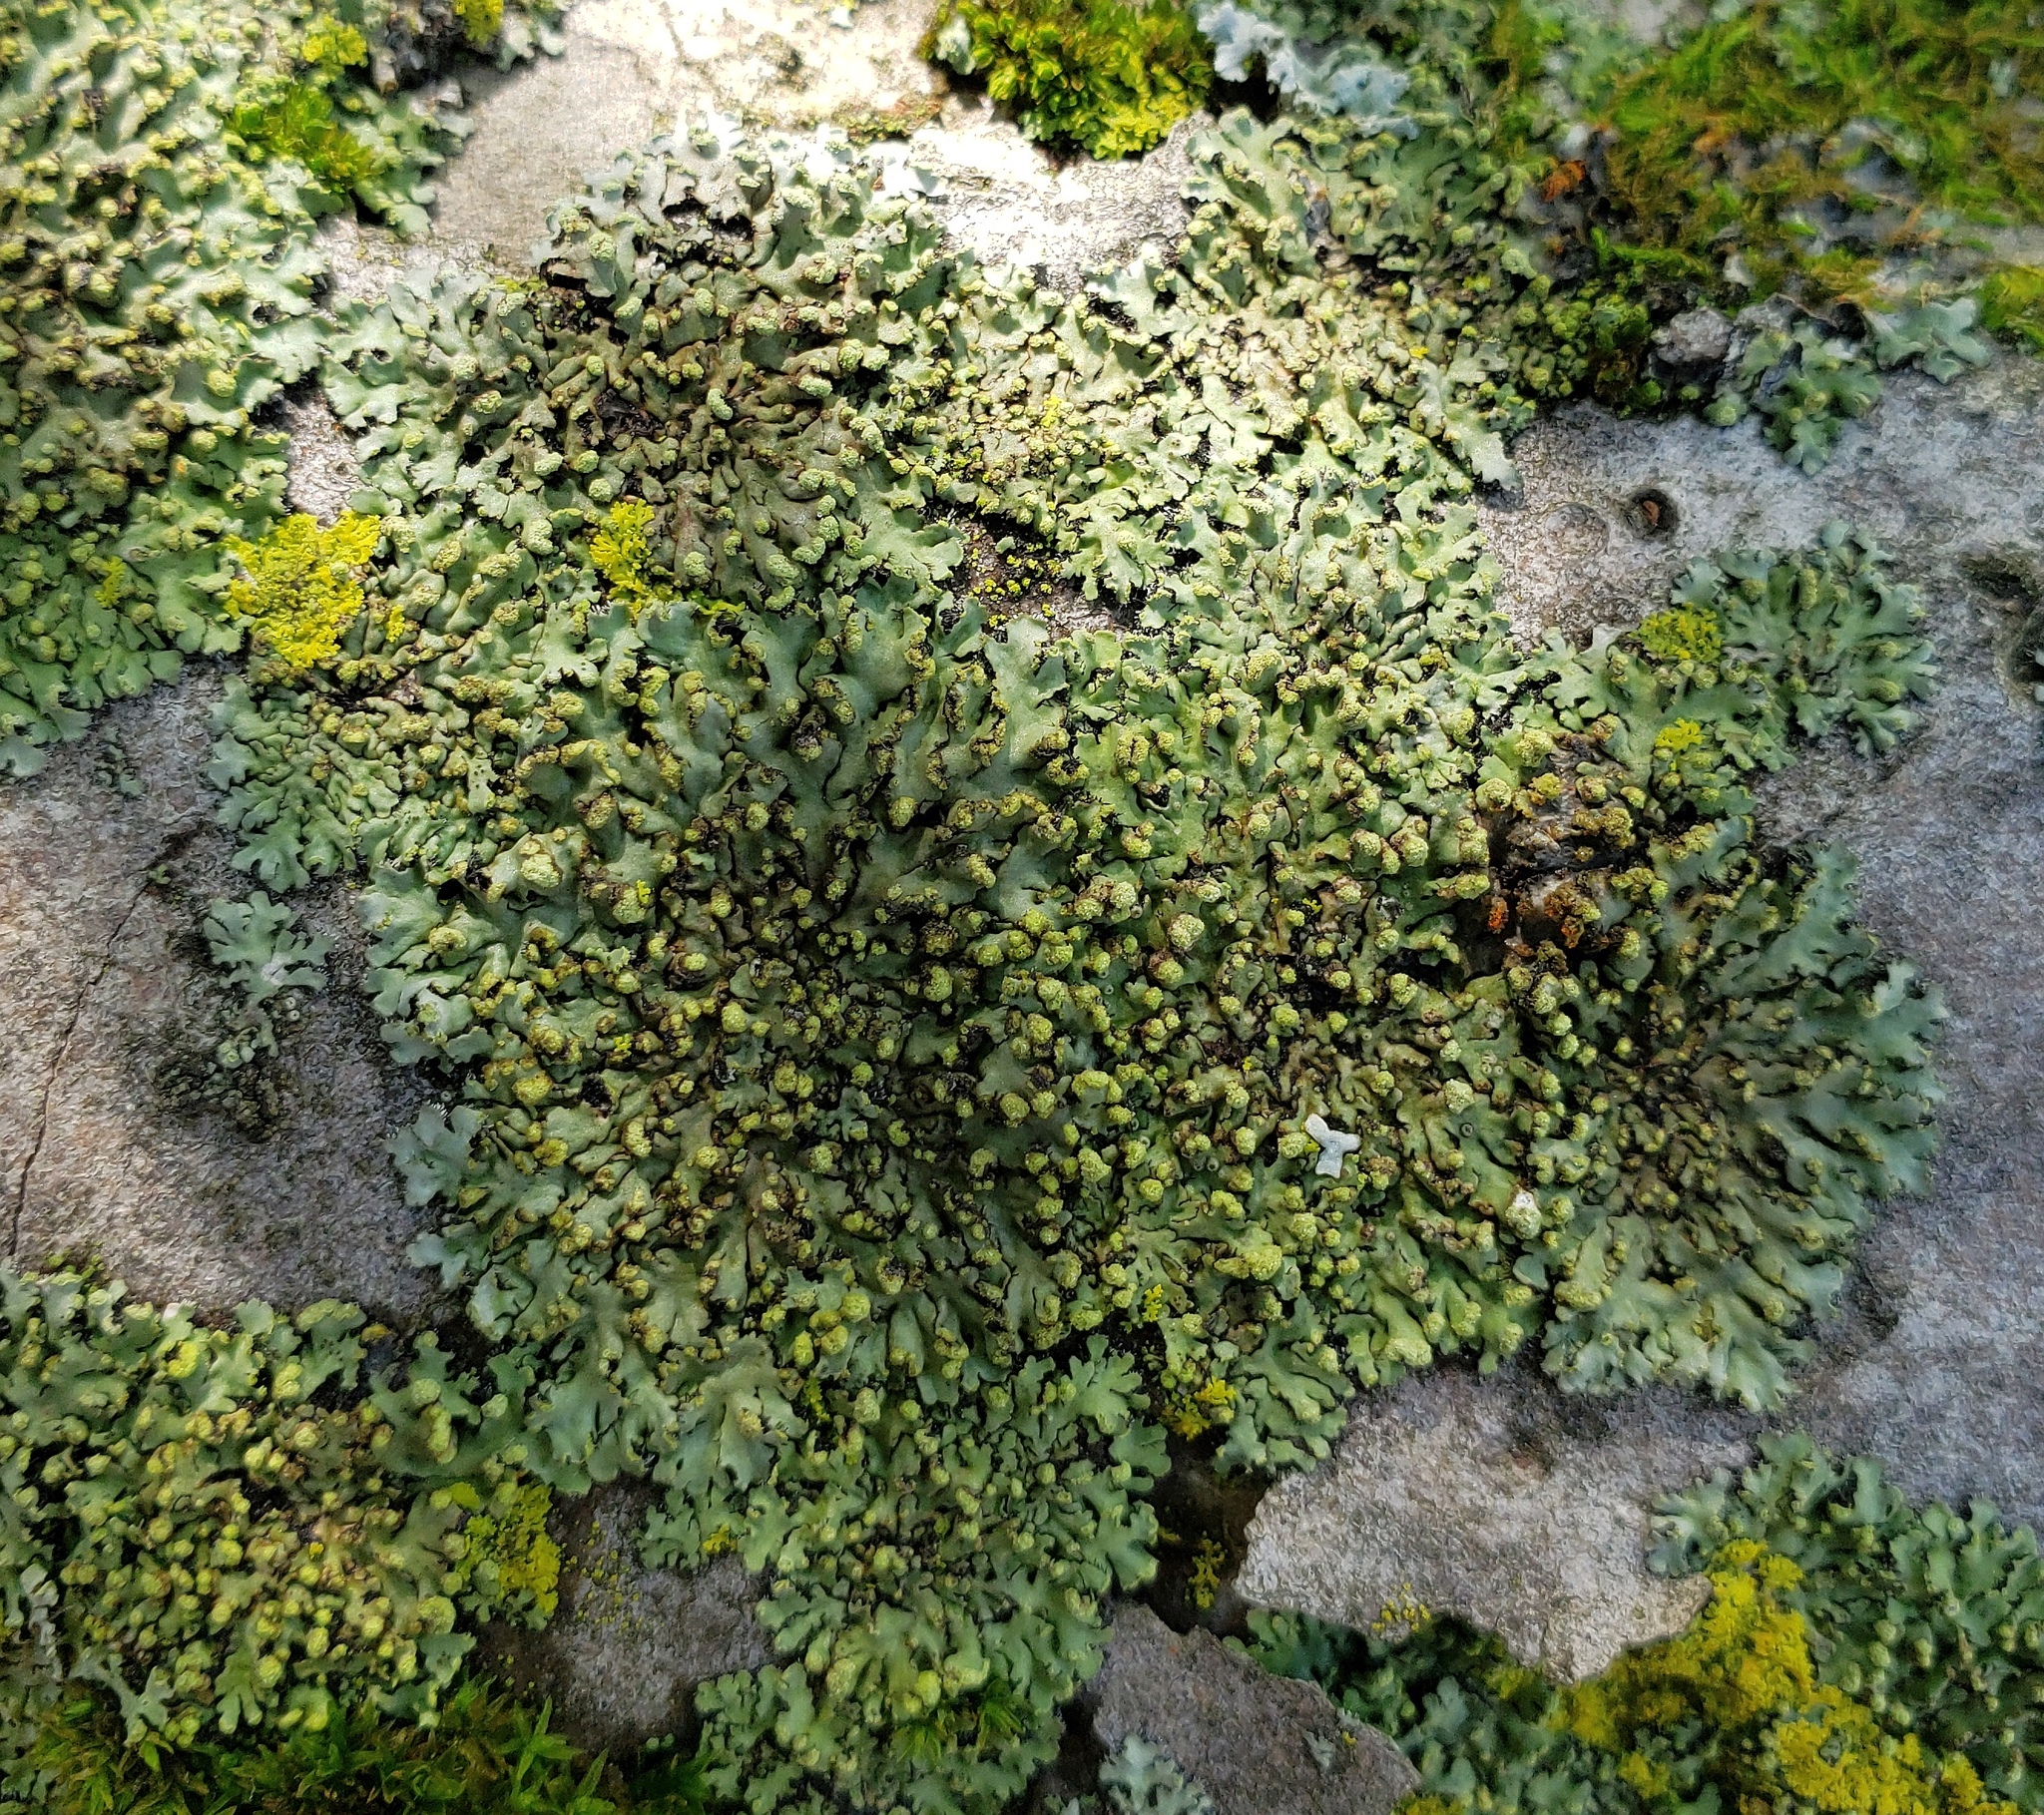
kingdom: Fungi
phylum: Ascomycota
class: Lecanoromycetes
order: Caliciales
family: Physciaceae
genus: Phaeophyscia
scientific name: Phaeophyscia pusilloides
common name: Pom-pom shadow lichen
